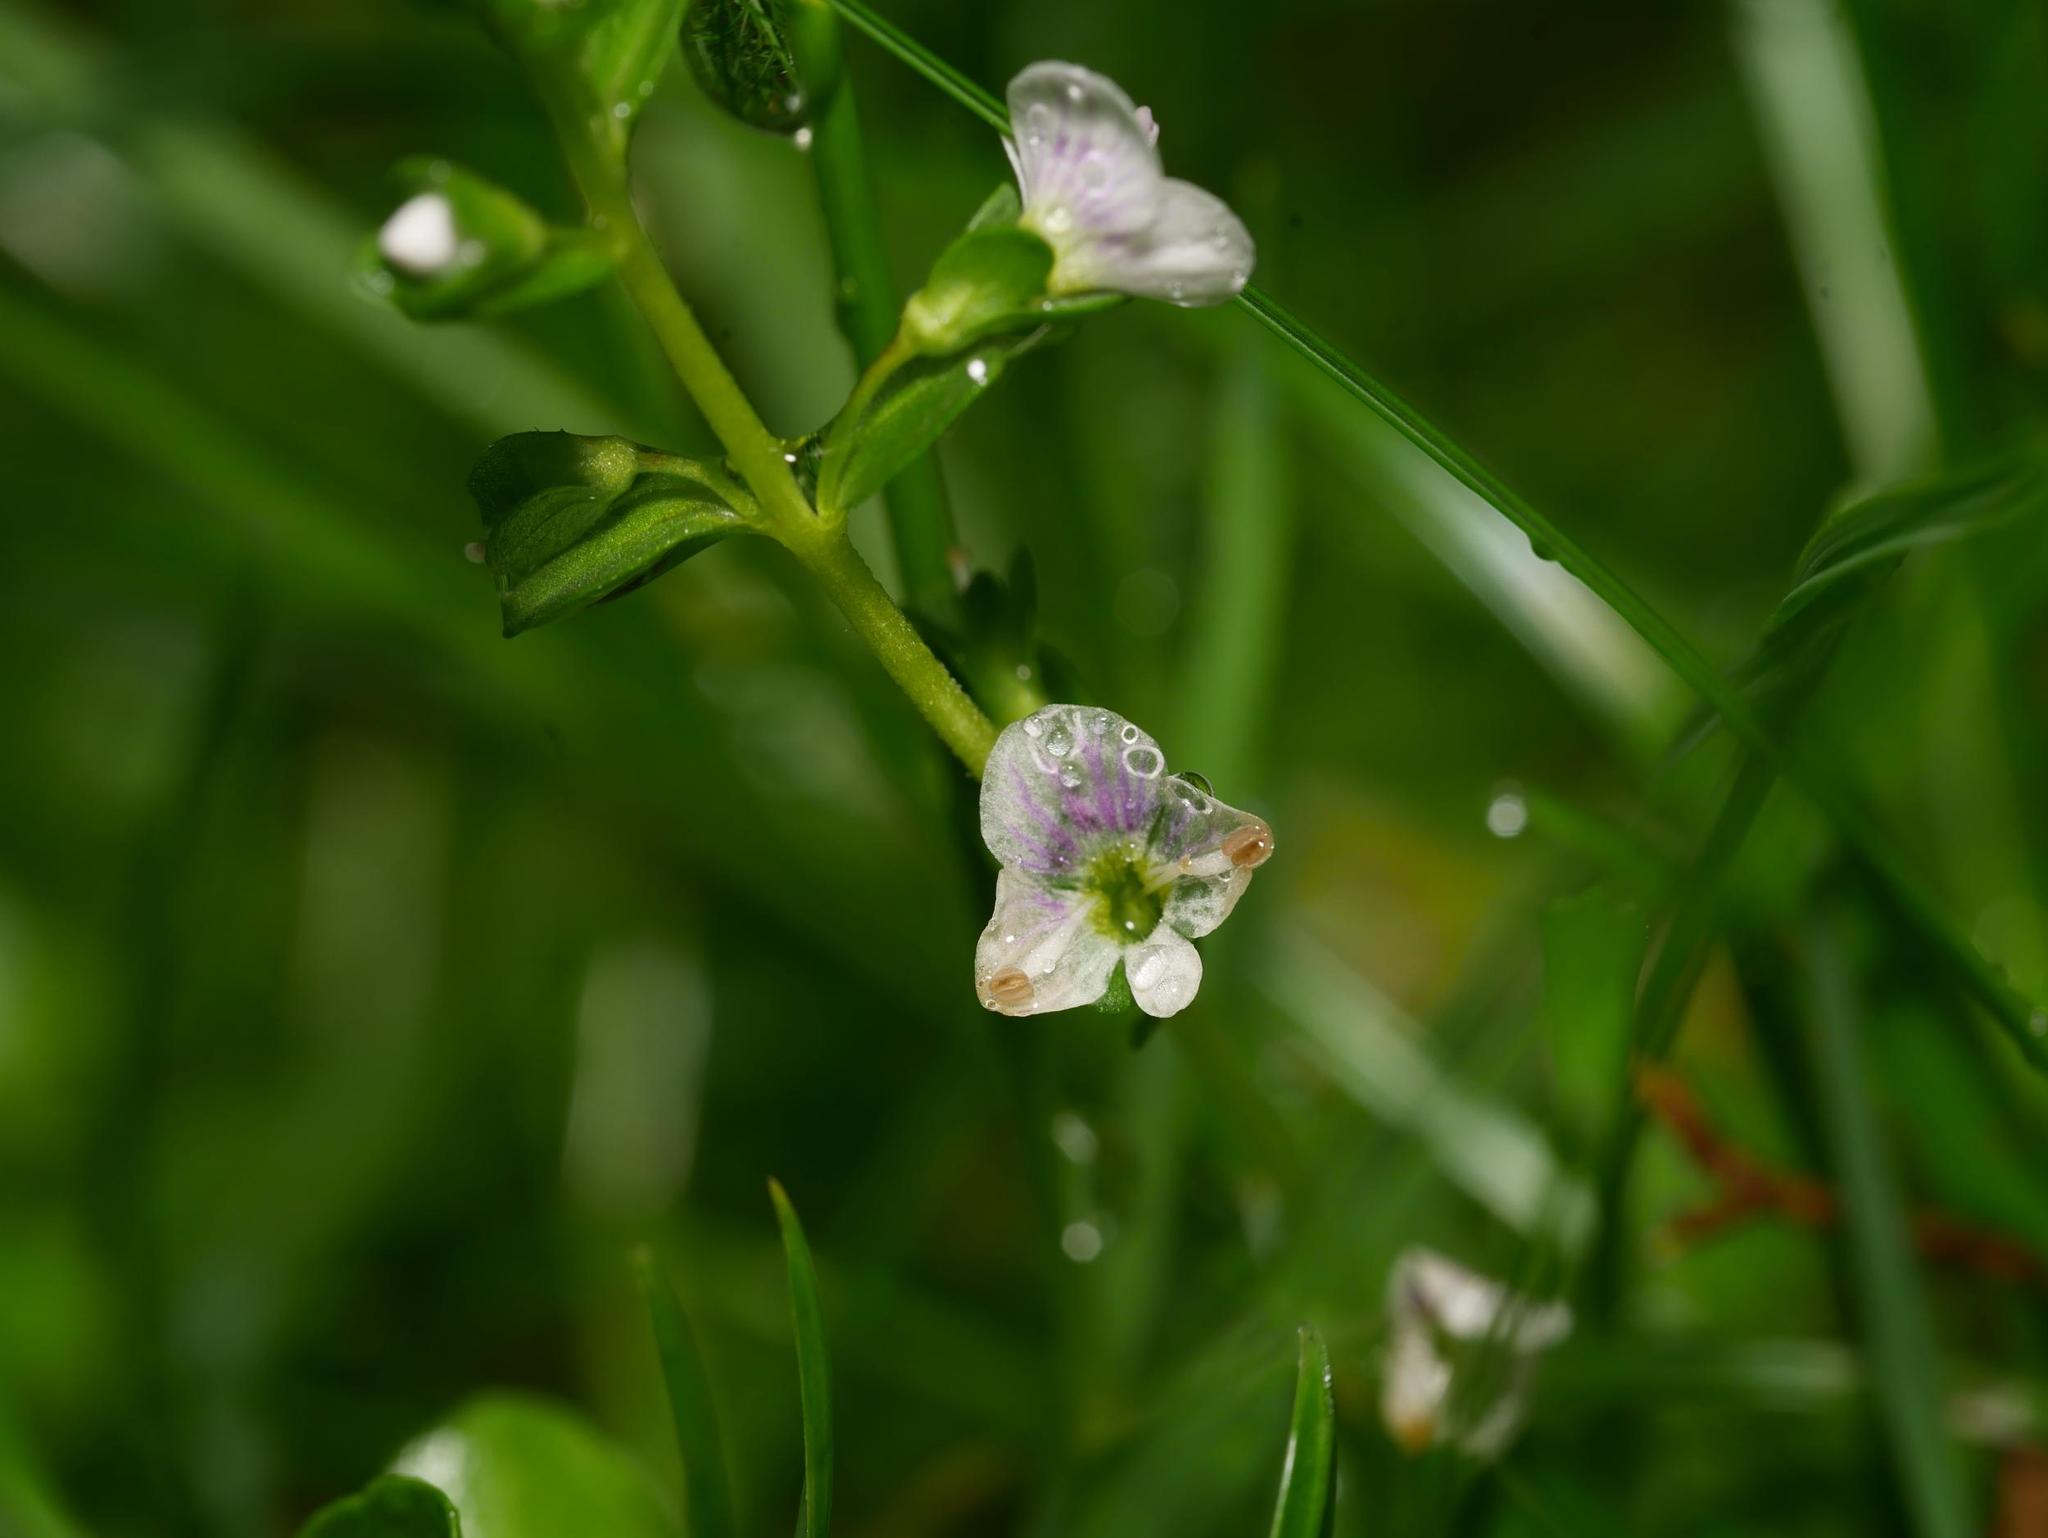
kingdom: Plantae
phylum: Tracheophyta
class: Magnoliopsida
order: Lamiales
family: Plantaginaceae
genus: Veronica
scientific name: Veronica serpyllifolia
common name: Thyme-leaved speedwell
